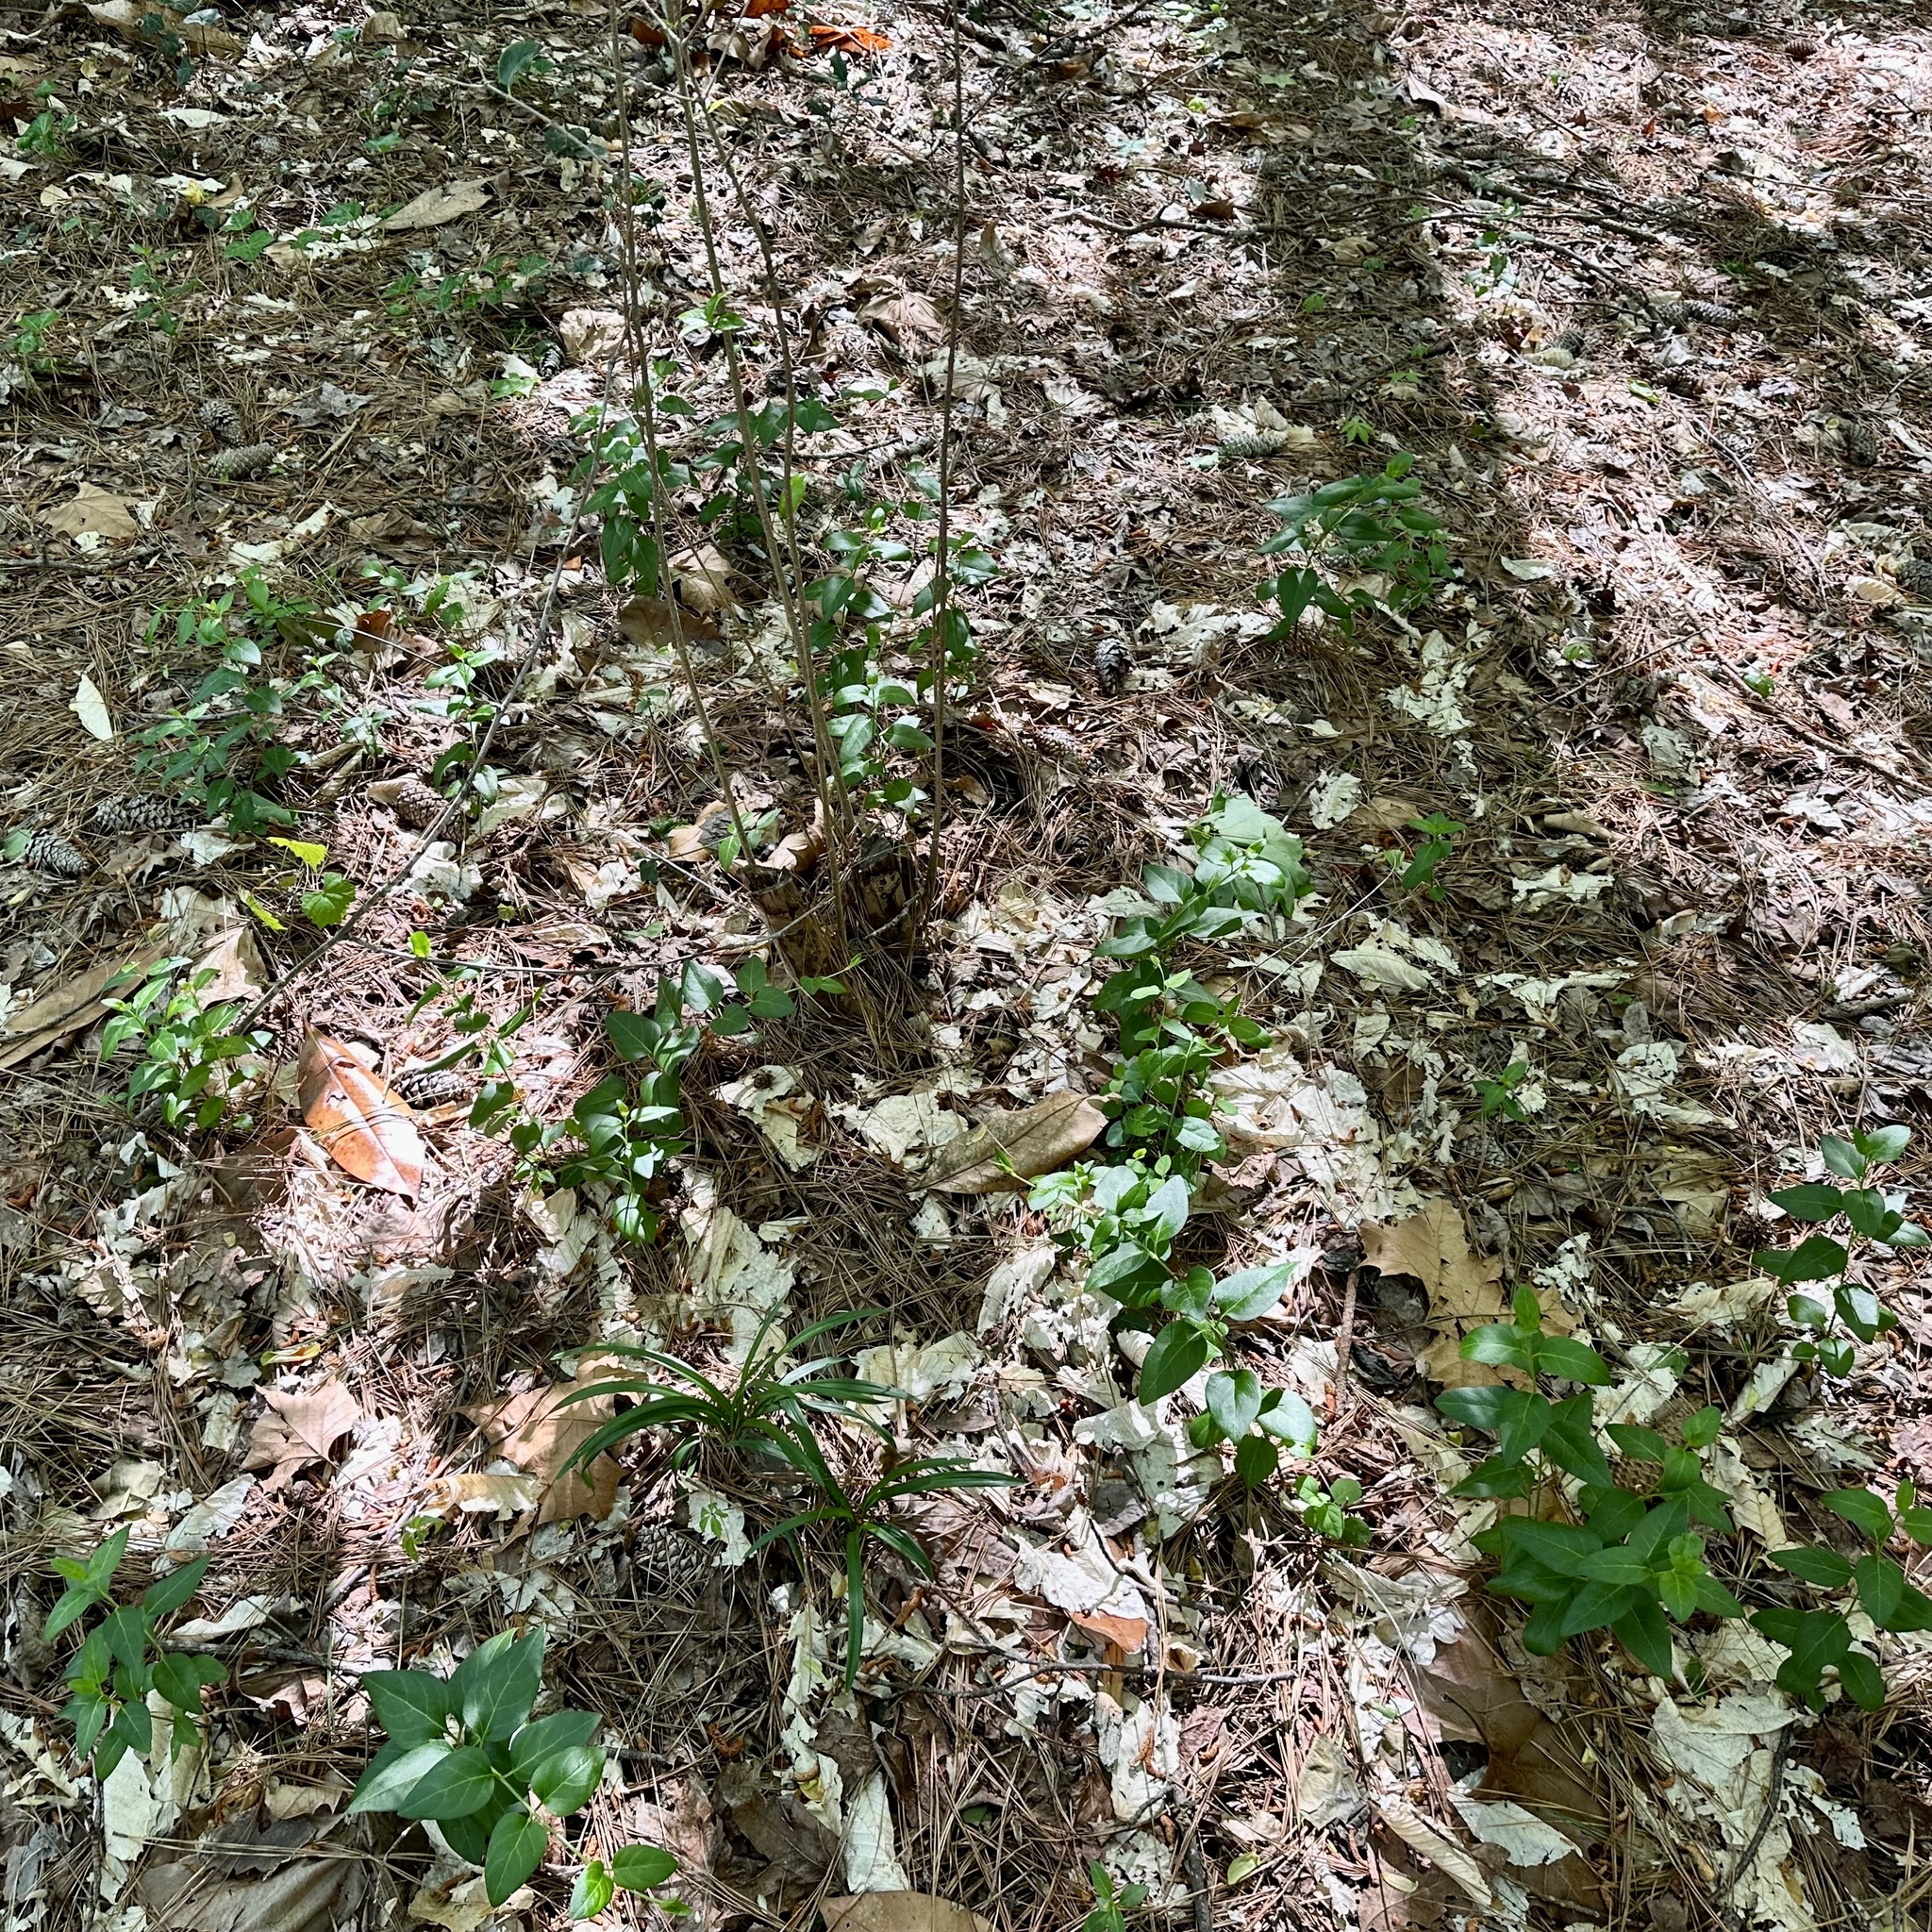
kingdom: Plantae
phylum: Tracheophyta
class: Magnoliopsida
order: Gentianales
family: Apocynaceae
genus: Vinca
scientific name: Vinca major
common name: Greater periwinkle
